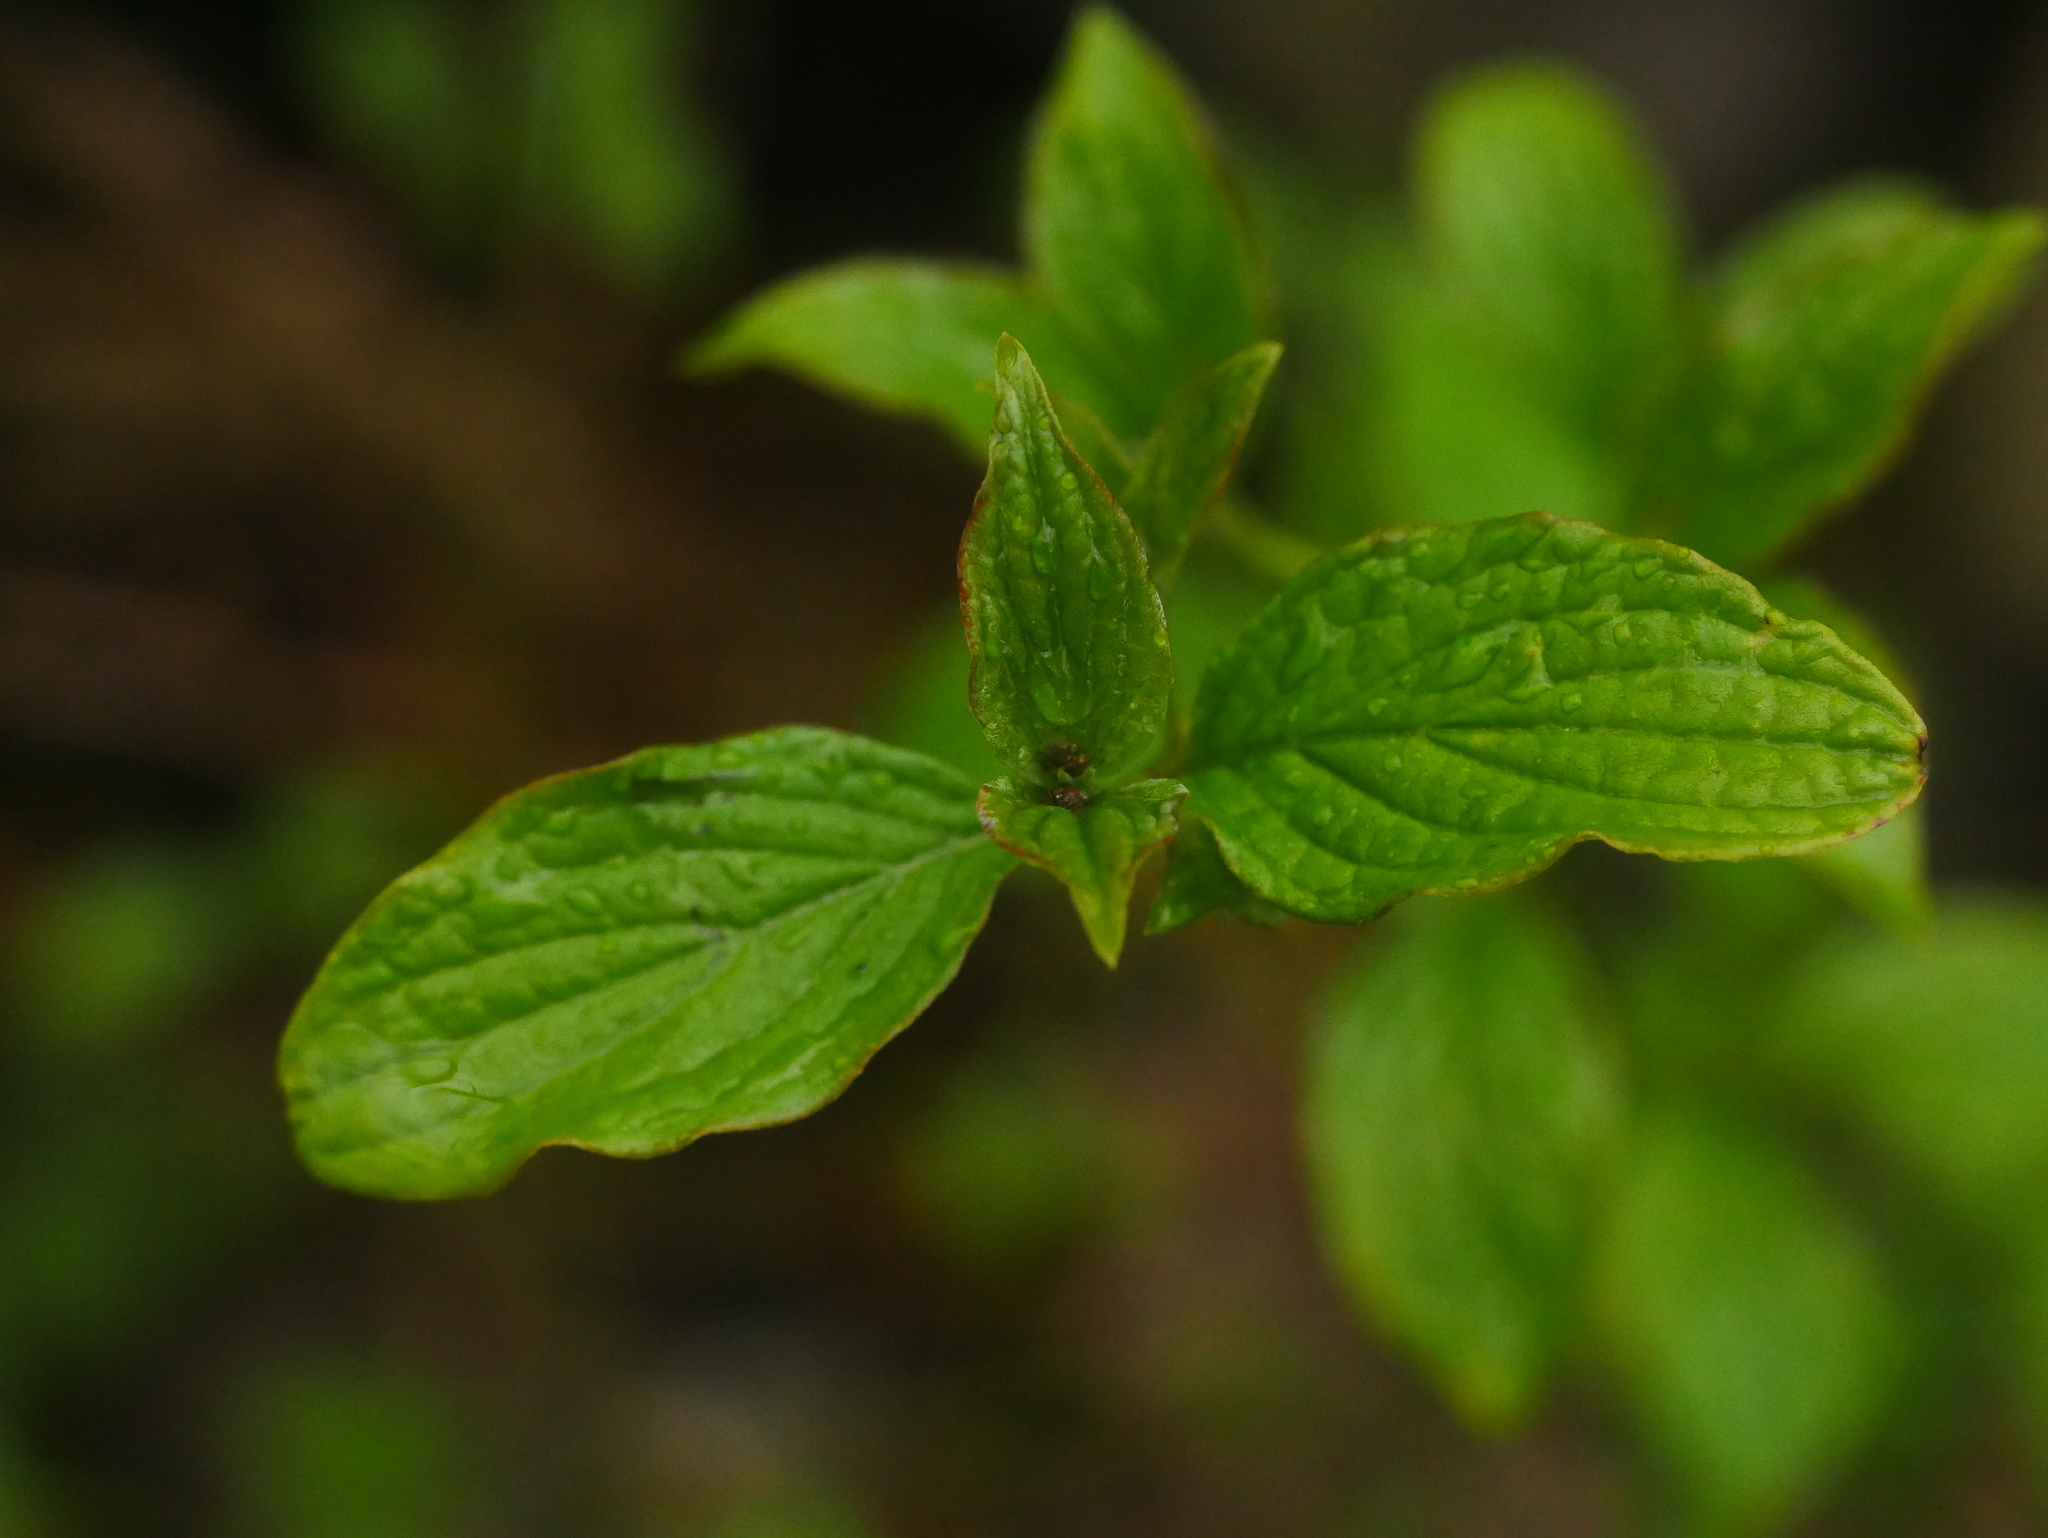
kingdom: Plantae
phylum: Tracheophyta
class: Magnoliopsida
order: Cornales
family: Cornaceae
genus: Cornus
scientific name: Cornus sanguinea
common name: Dogwood
